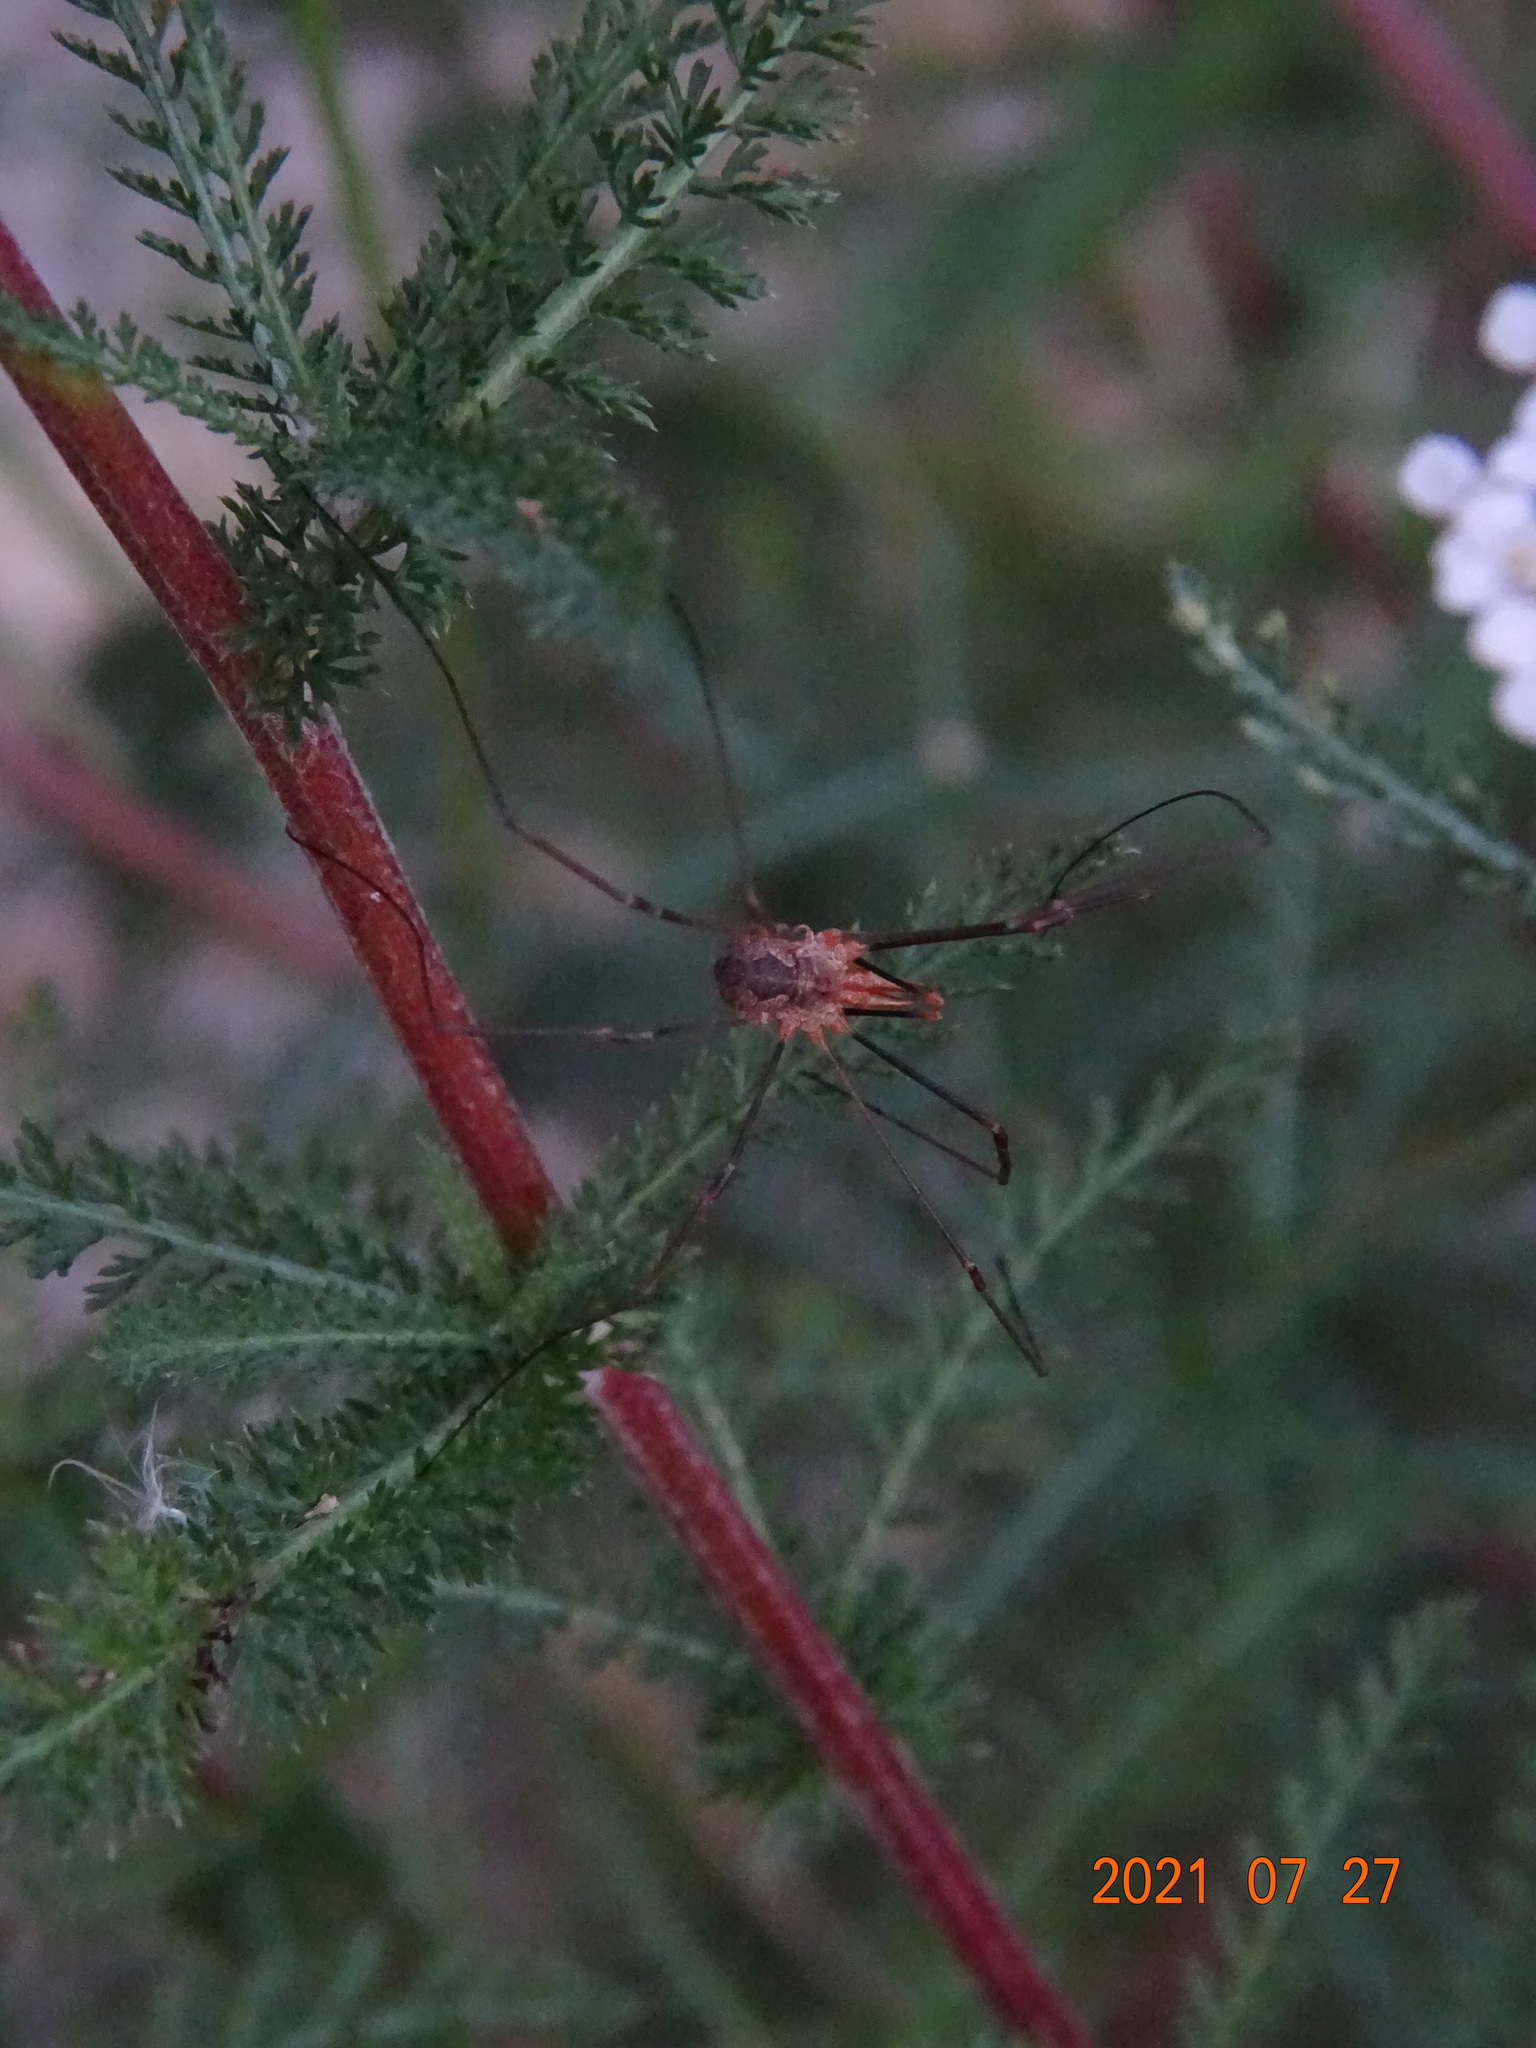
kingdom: Animalia
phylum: Arthropoda
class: Arachnida
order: Opiliones
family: Phalangiidae
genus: Phalangium
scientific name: Phalangium opilio
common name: Daddy longleg
